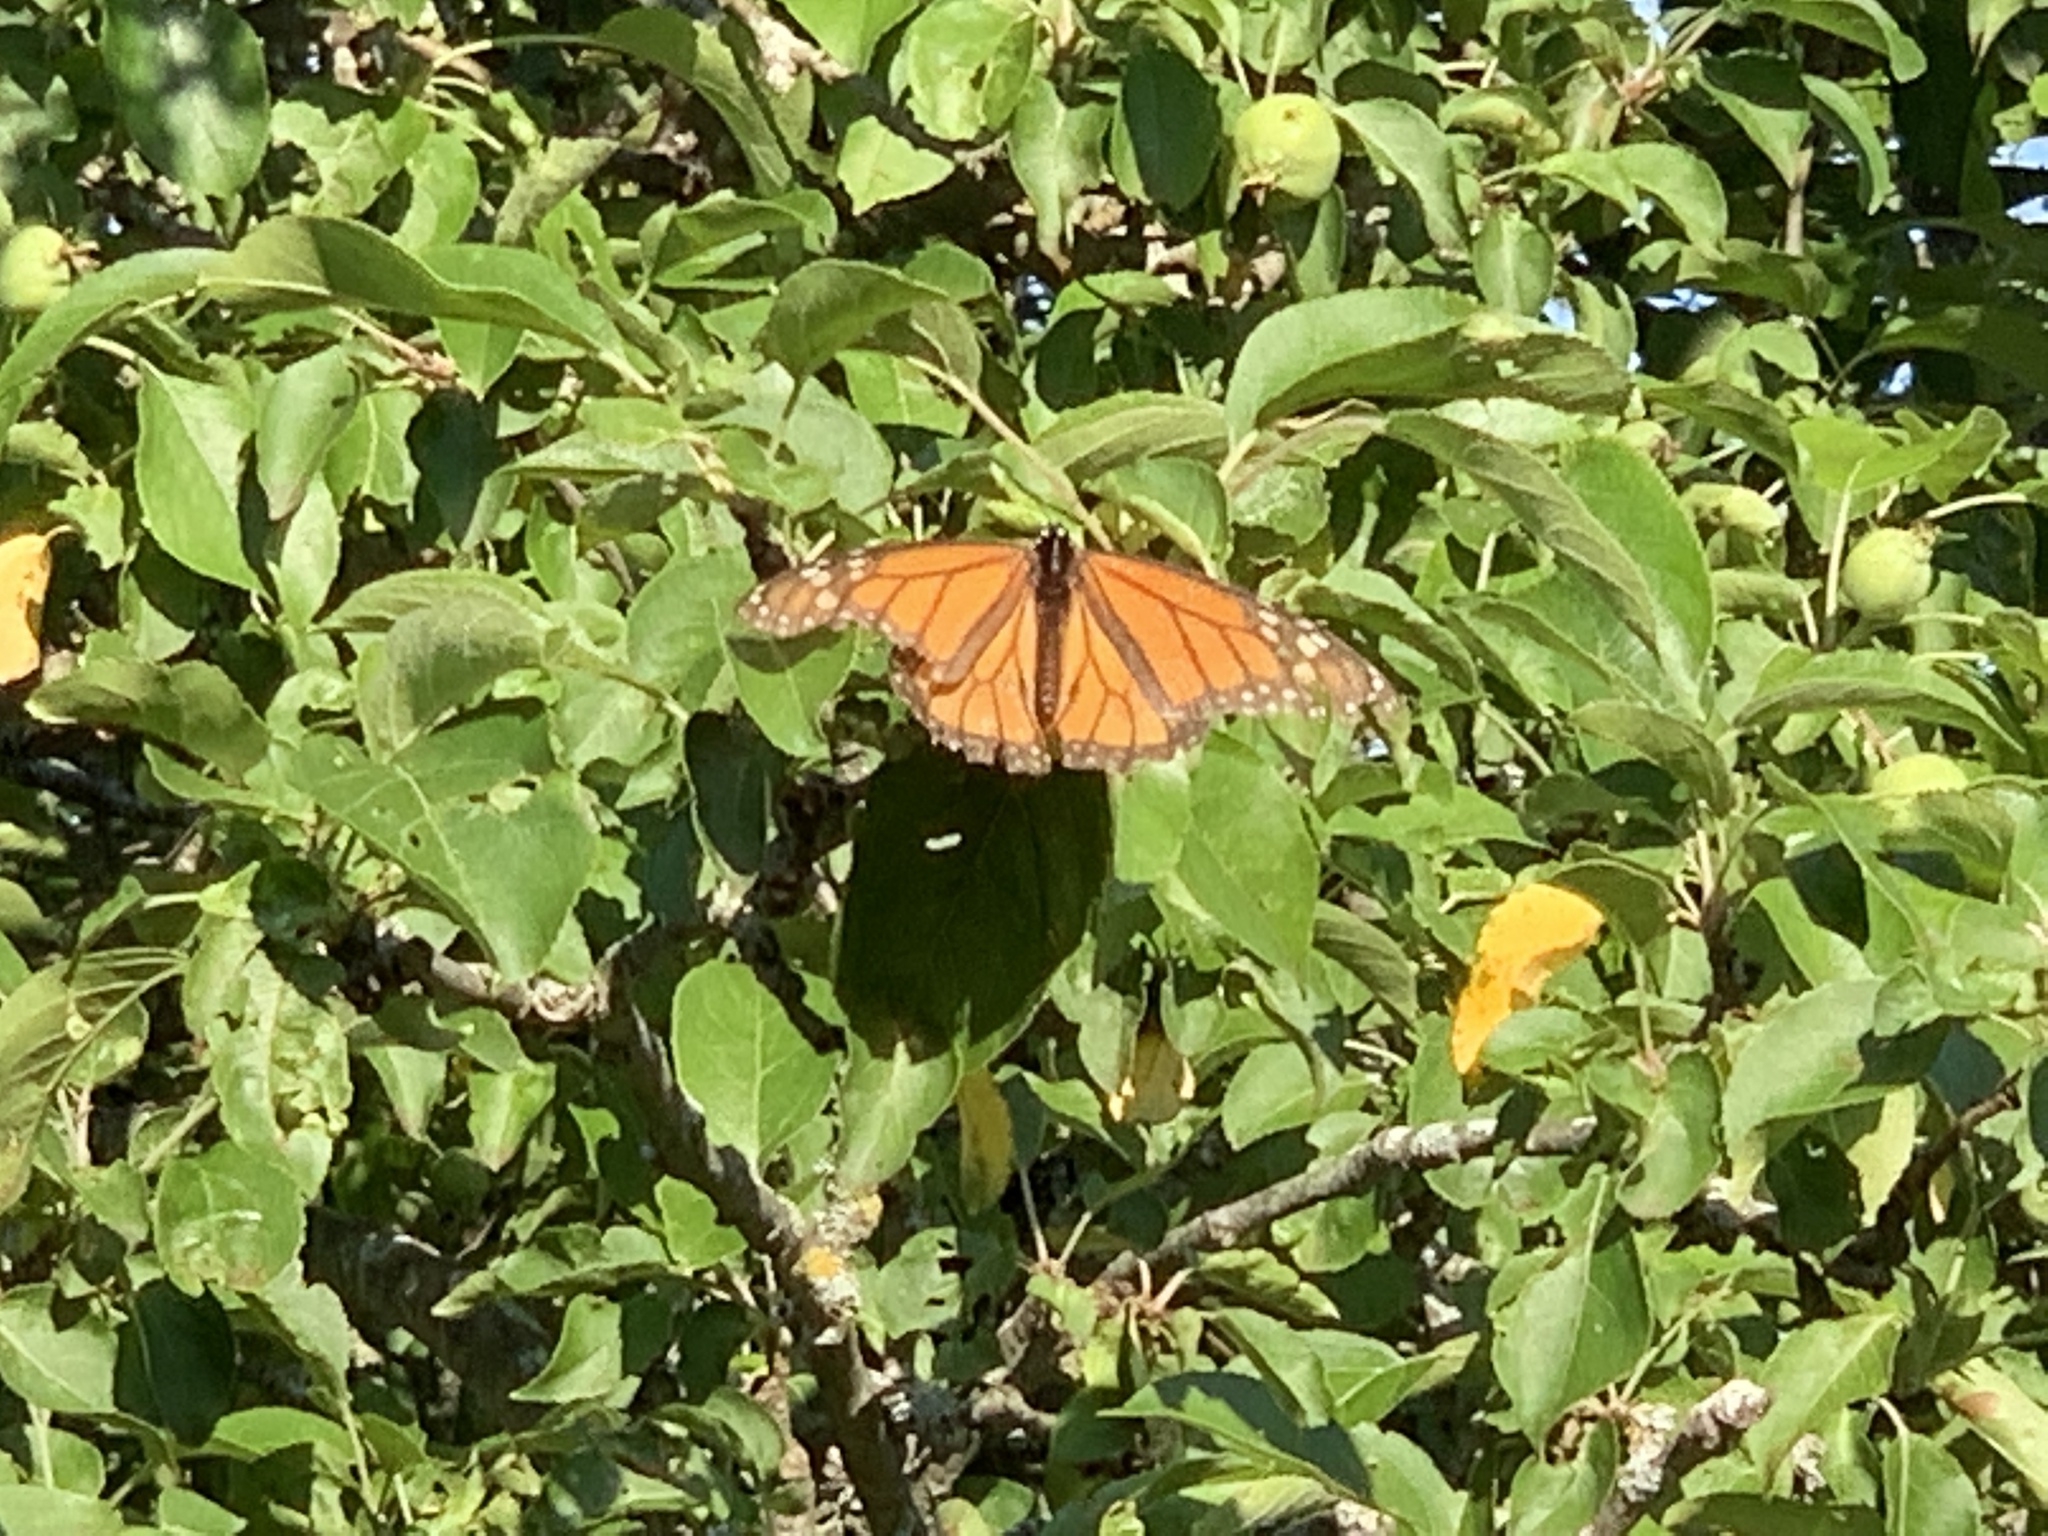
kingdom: Animalia
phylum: Arthropoda
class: Insecta
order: Lepidoptera
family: Nymphalidae
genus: Danaus
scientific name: Danaus plexippus
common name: Monarch
